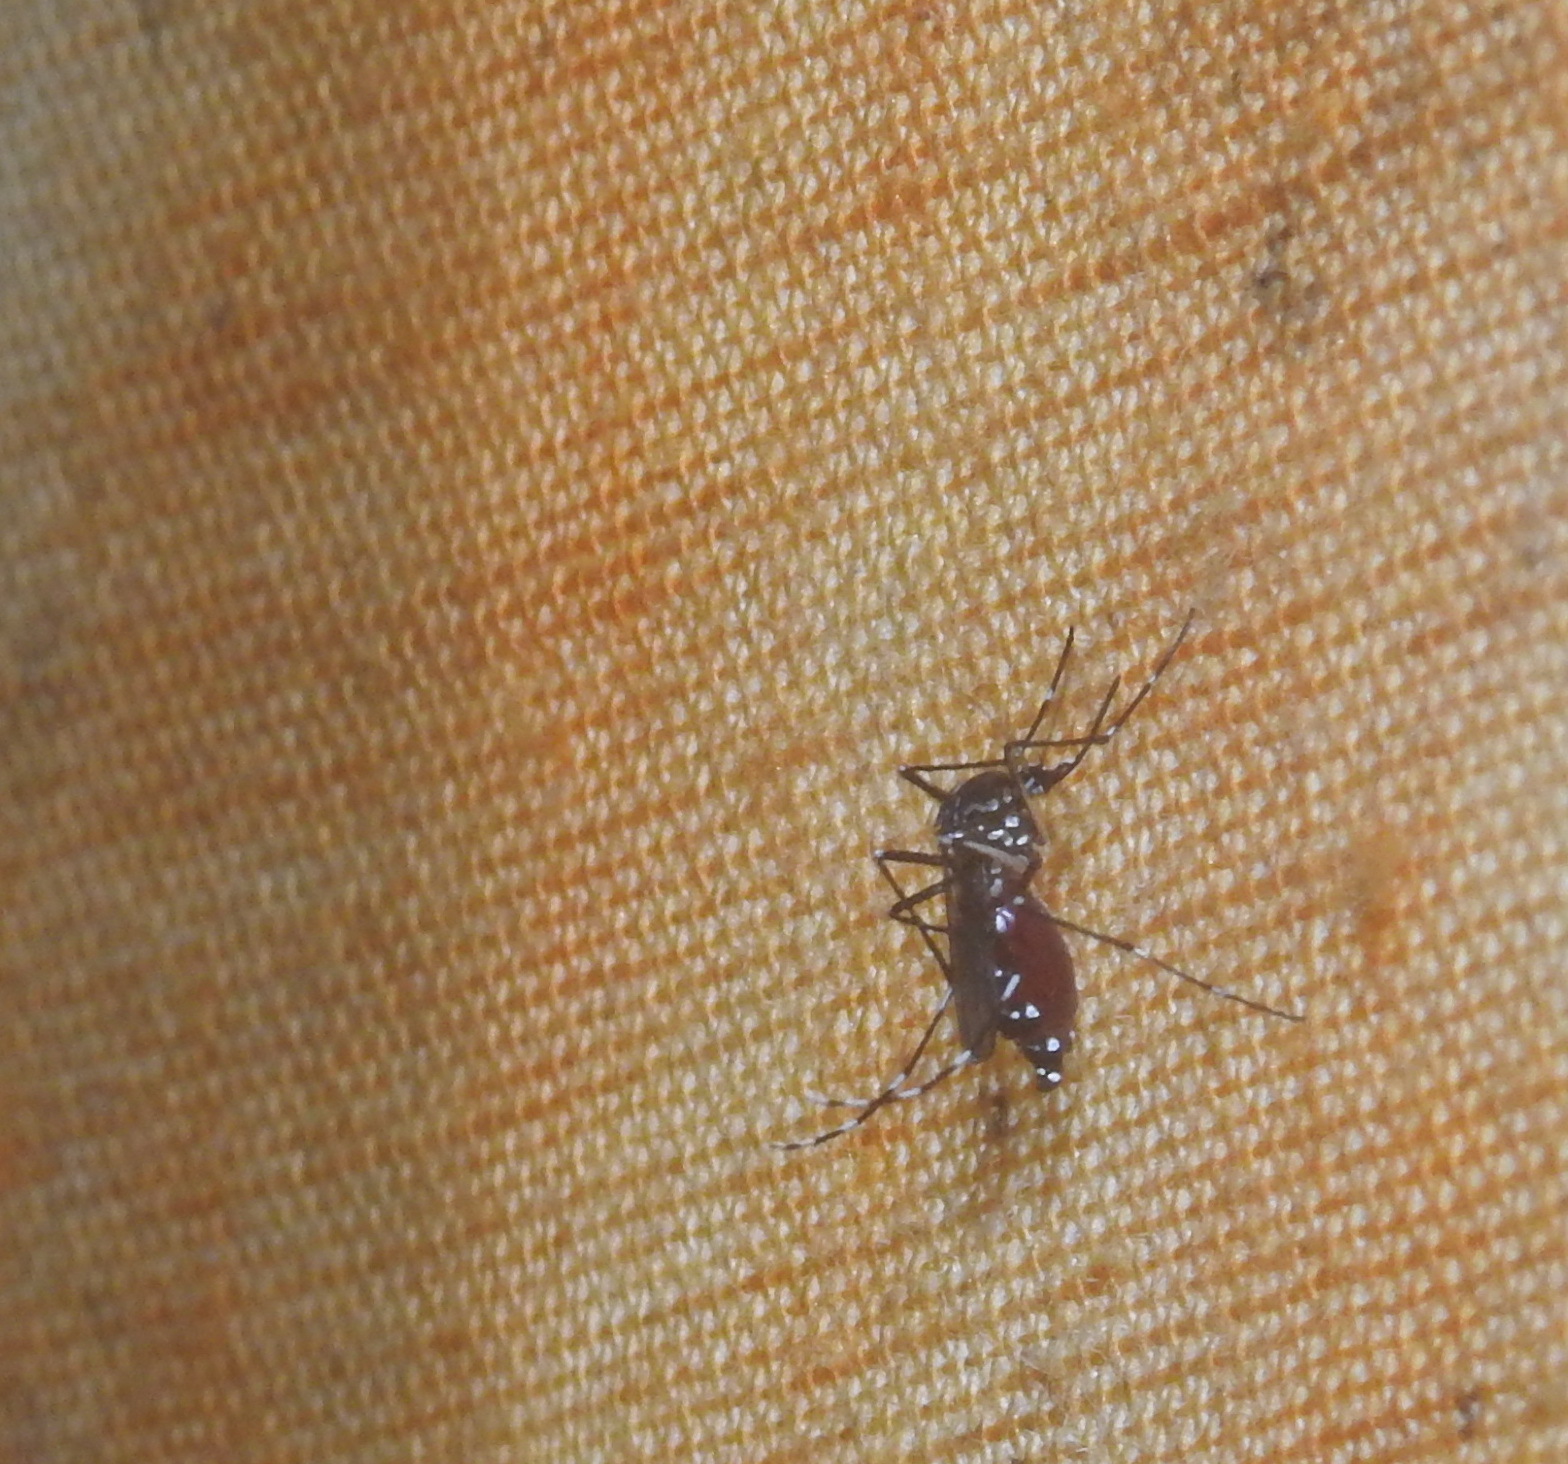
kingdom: Animalia
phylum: Arthropoda
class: Insecta
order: Diptera
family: Culicidae
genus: Aedes
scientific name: Aedes albopictus
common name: Tiger mosquito
